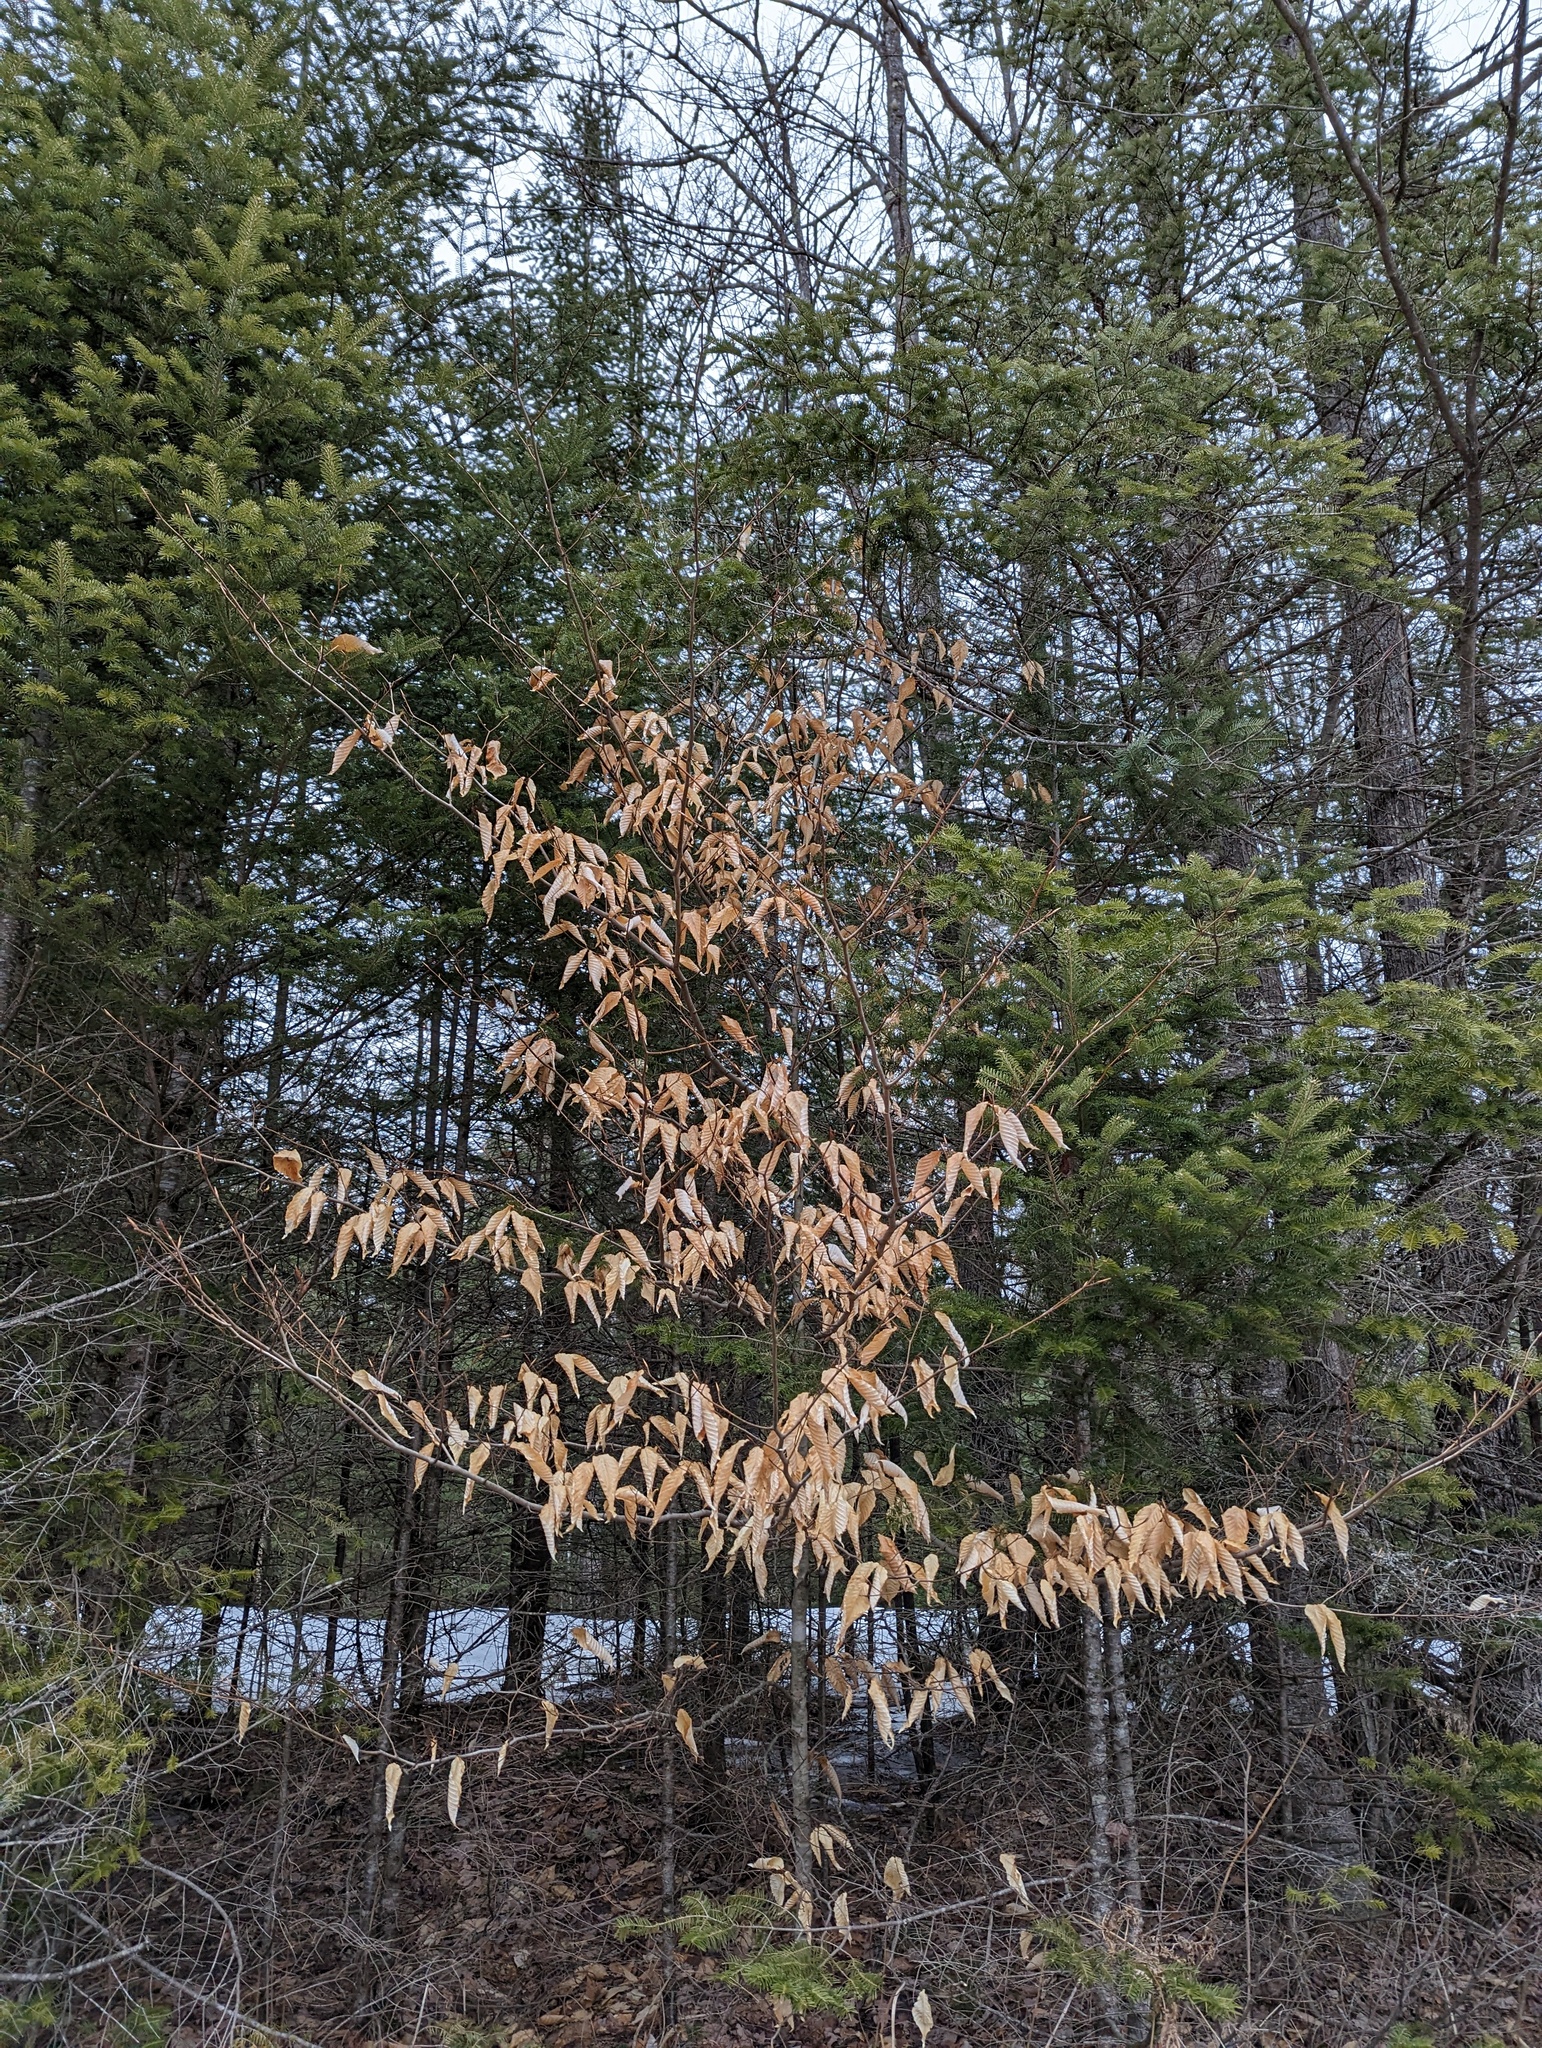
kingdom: Plantae
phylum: Tracheophyta
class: Magnoliopsida
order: Fagales
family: Fagaceae
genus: Fagus
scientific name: Fagus grandifolia
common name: American beech
